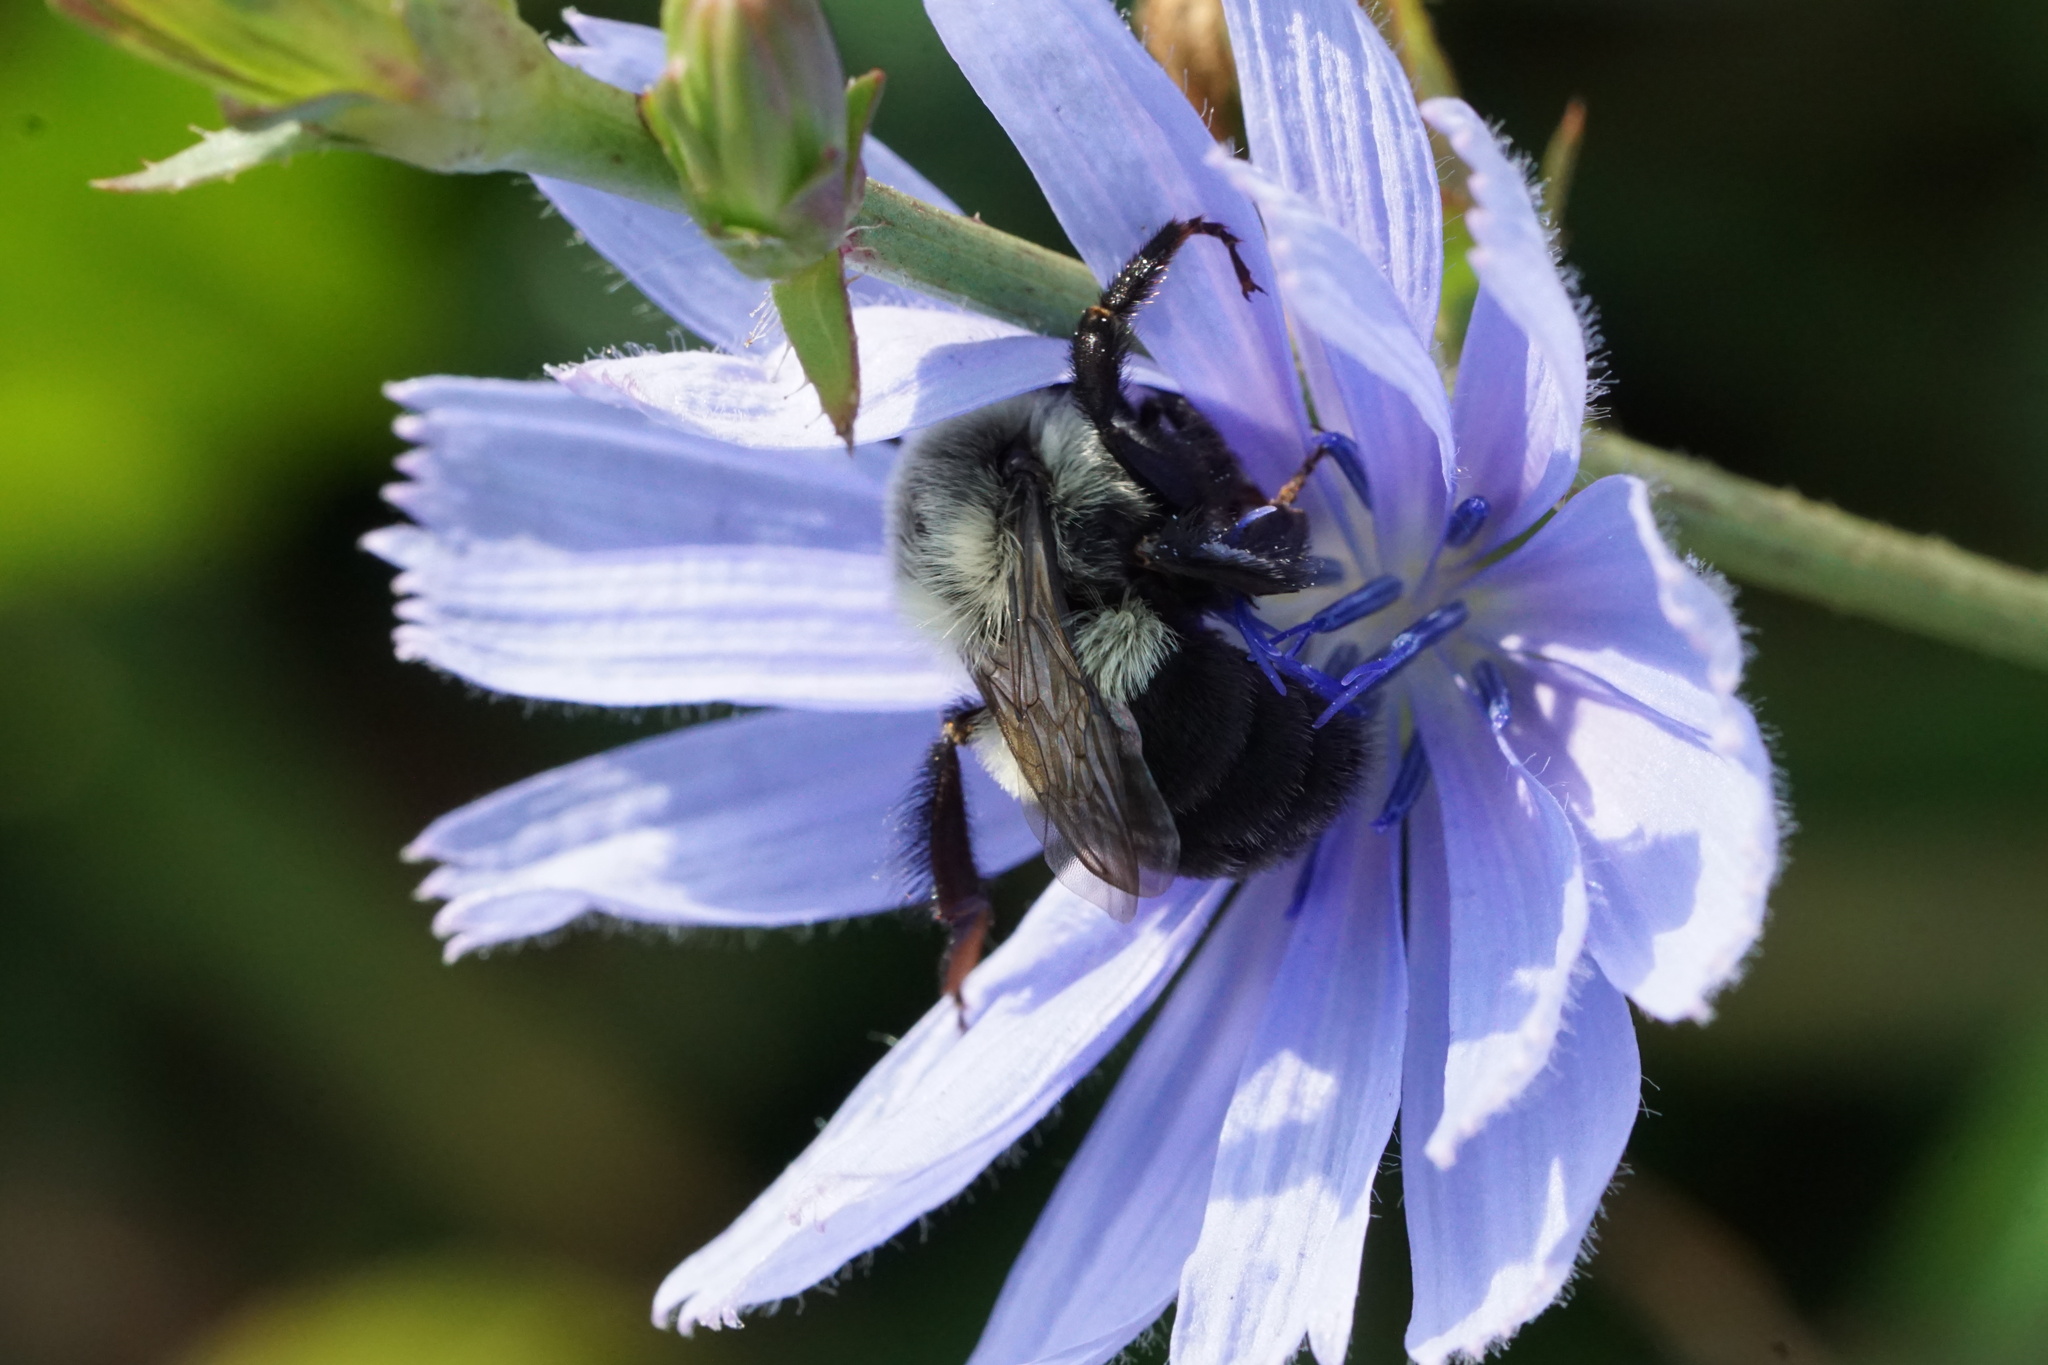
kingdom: Animalia
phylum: Arthropoda
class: Insecta
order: Hymenoptera
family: Apidae
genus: Bombus
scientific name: Bombus impatiens
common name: Common eastern bumble bee
